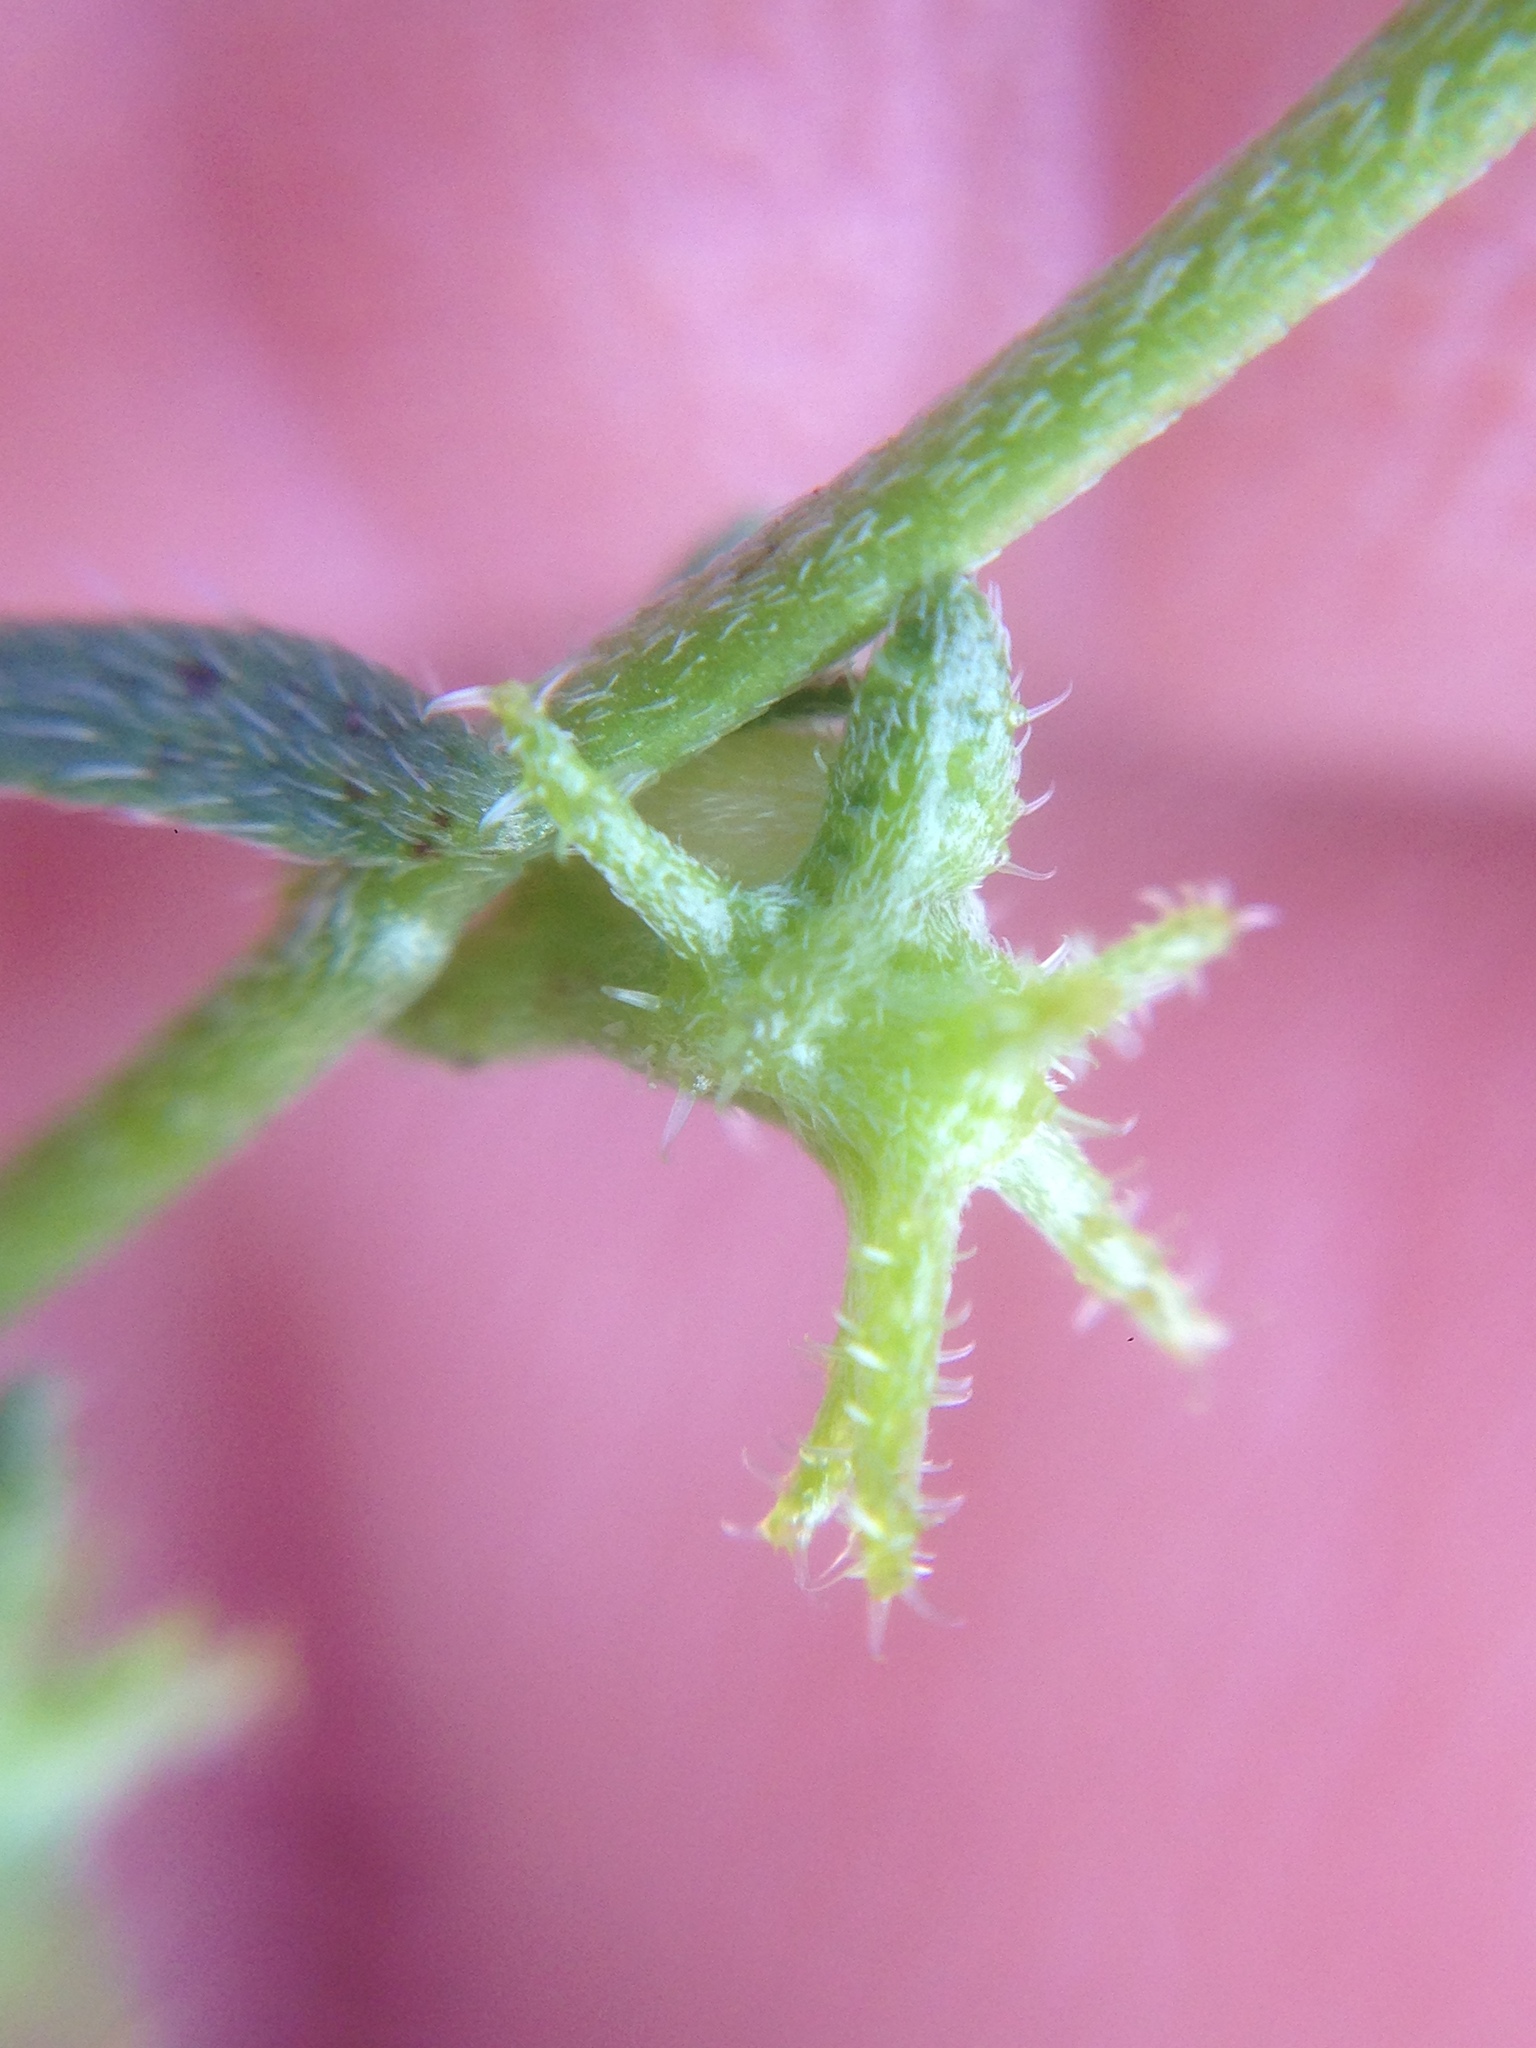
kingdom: Plantae
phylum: Tracheophyta
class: Magnoliopsida
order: Boraginales
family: Boraginaceae
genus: Harpagonella
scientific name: Harpagonella palmeri
